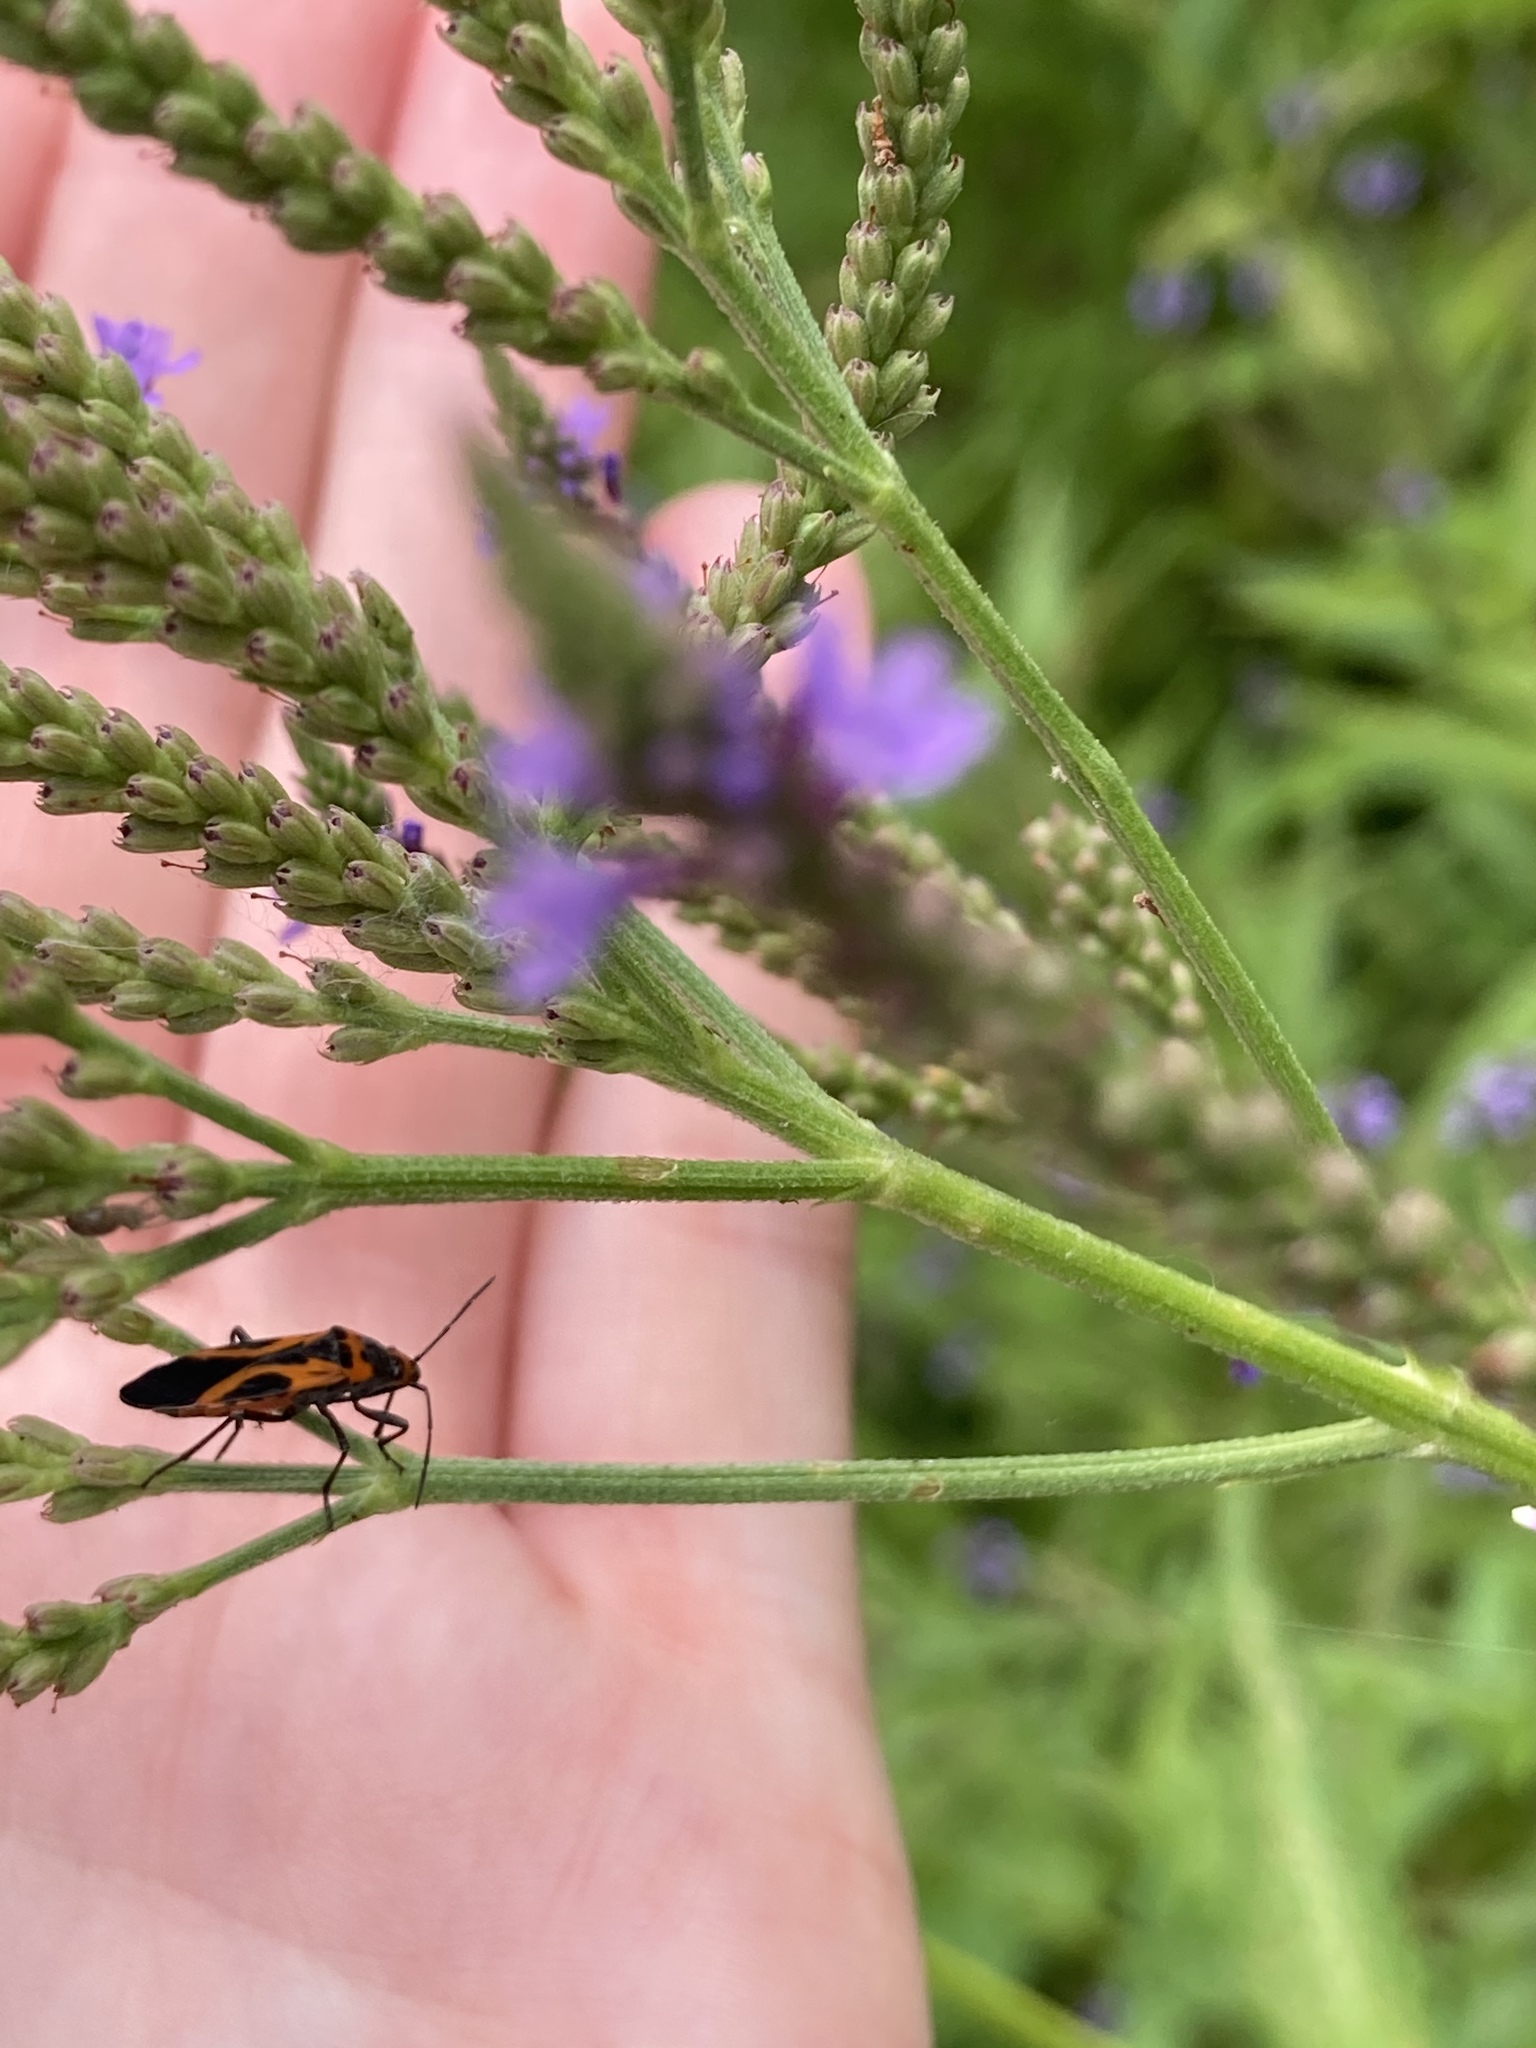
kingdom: Animalia
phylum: Arthropoda
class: Insecta
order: Hemiptera
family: Lygaeidae
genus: Lygaeus
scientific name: Lygaeus turcicus
